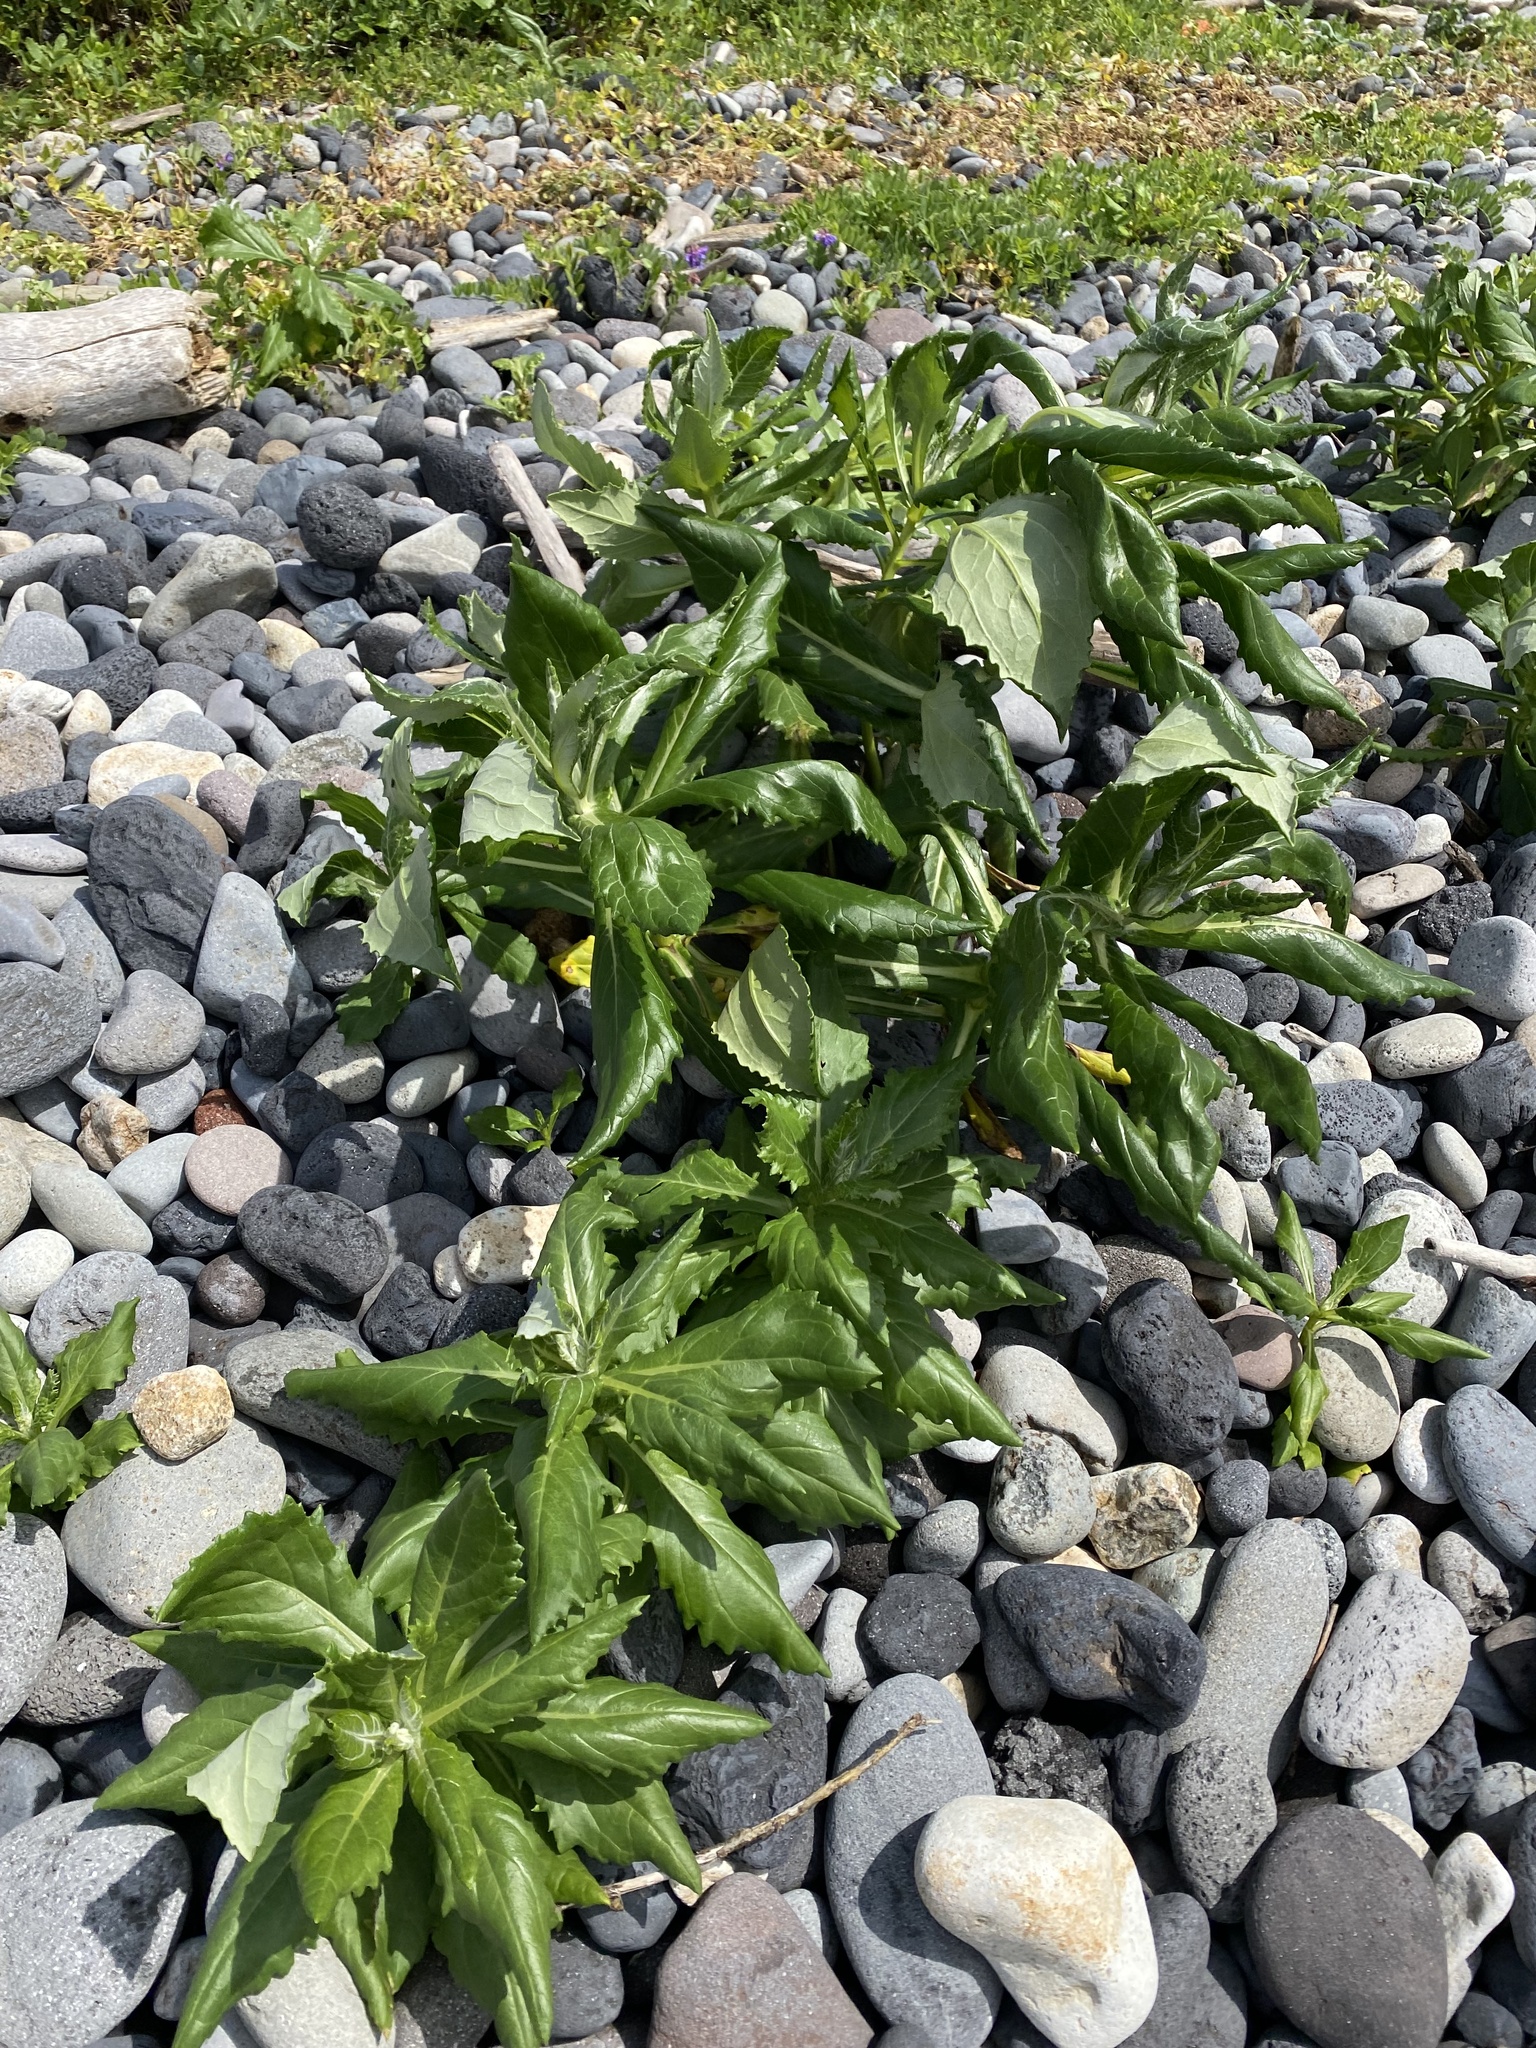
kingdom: Plantae
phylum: Tracheophyta
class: Magnoliopsida
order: Asterales
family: Asteraceae
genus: Jacobaea
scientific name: Jacobaea pseudoarnica
